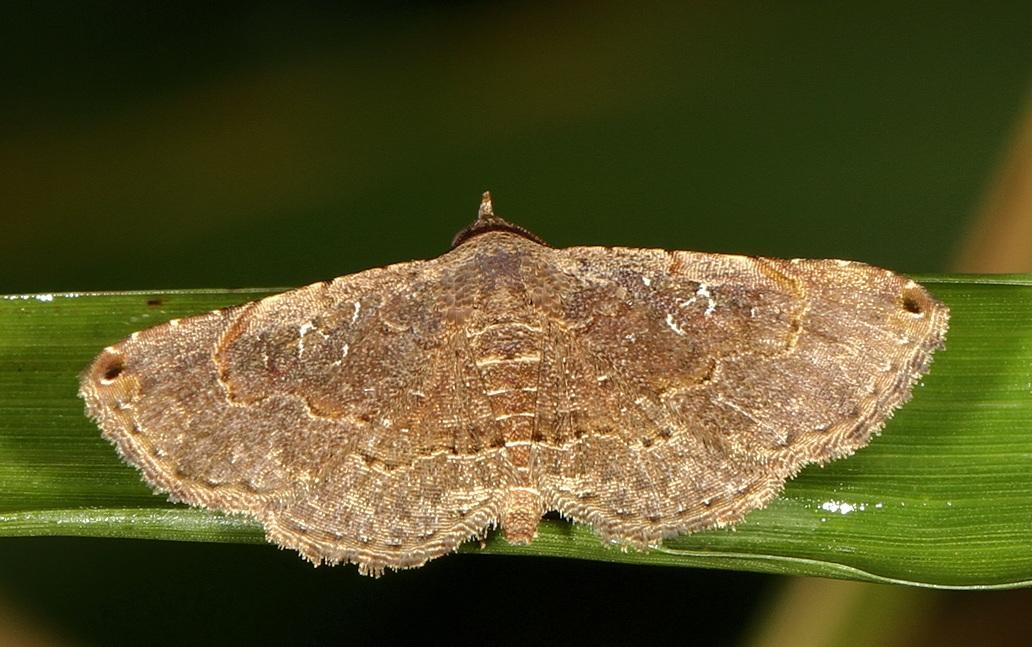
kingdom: Animalia
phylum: Arthropoda
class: Insecta
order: Lepidoptera
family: Erebidae
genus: Rhesala
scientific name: Rhesala moestalis
